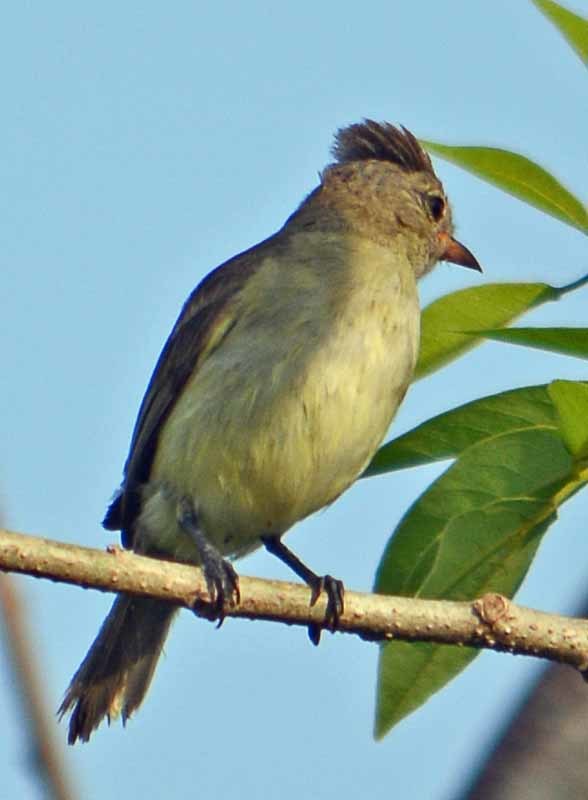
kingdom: Animalia
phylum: Chordata
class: Aves
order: Passeriformes
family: Tyrannidae
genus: Elaenia
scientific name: Elaenia flavogaster
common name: Yellow-bellied elaenia
